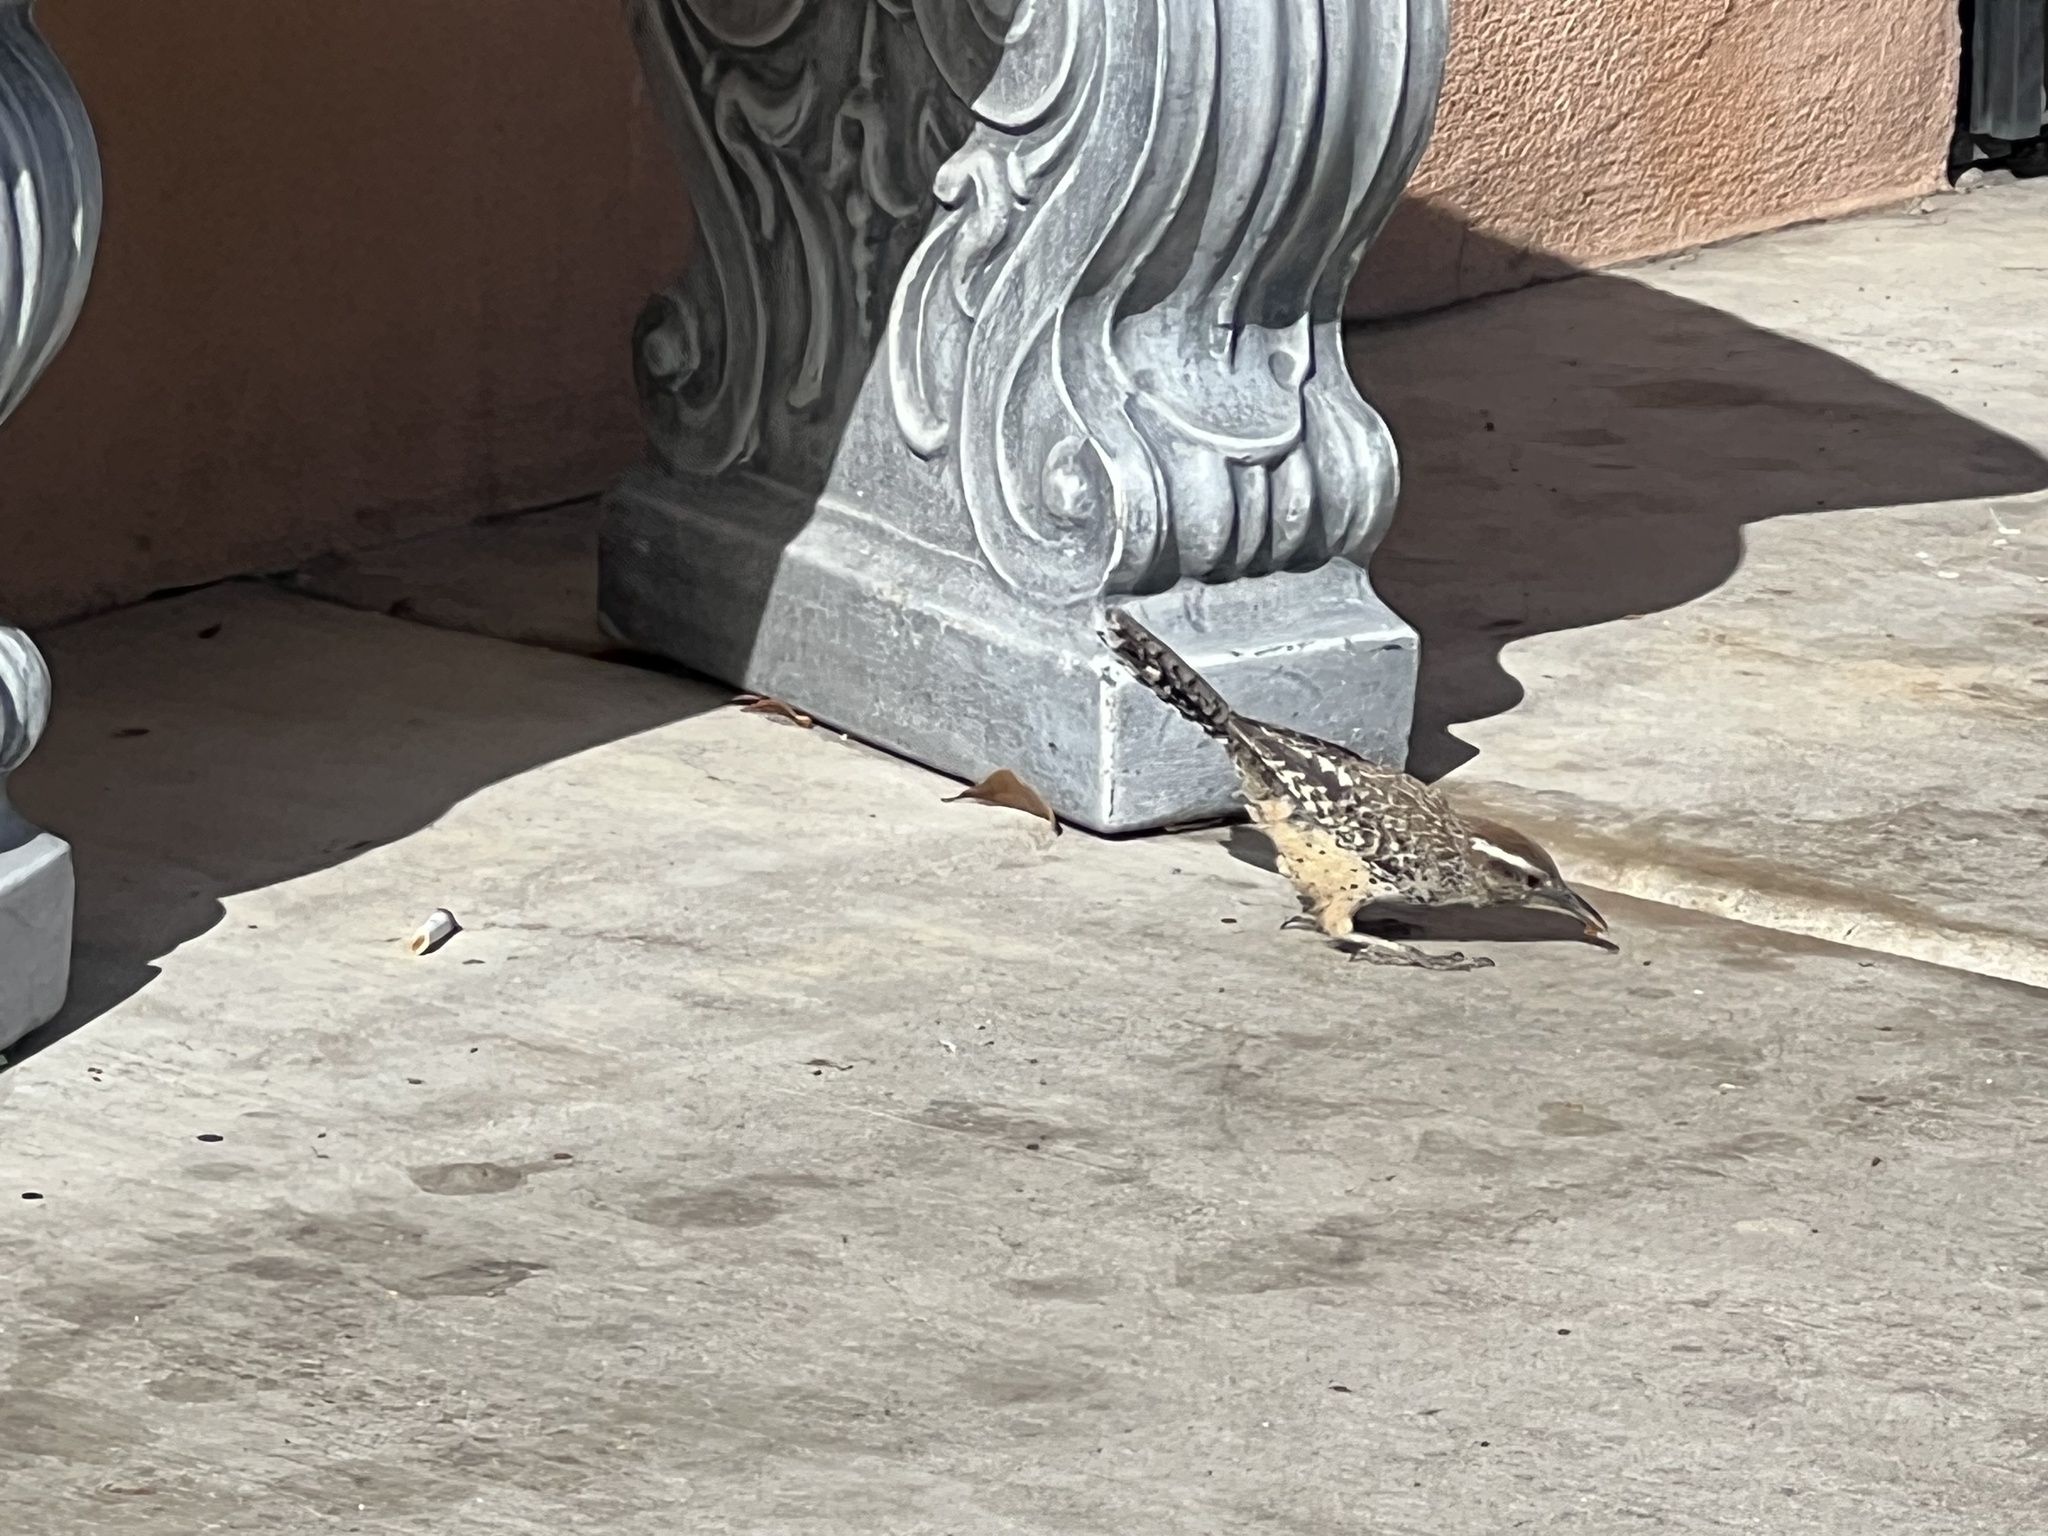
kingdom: Animalia
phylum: Chordata
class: Aves
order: Passeriformes
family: Troglodytidae
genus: Campylorhynchus
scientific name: Campylorhynchus brunneicapillus
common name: Cactus wren
